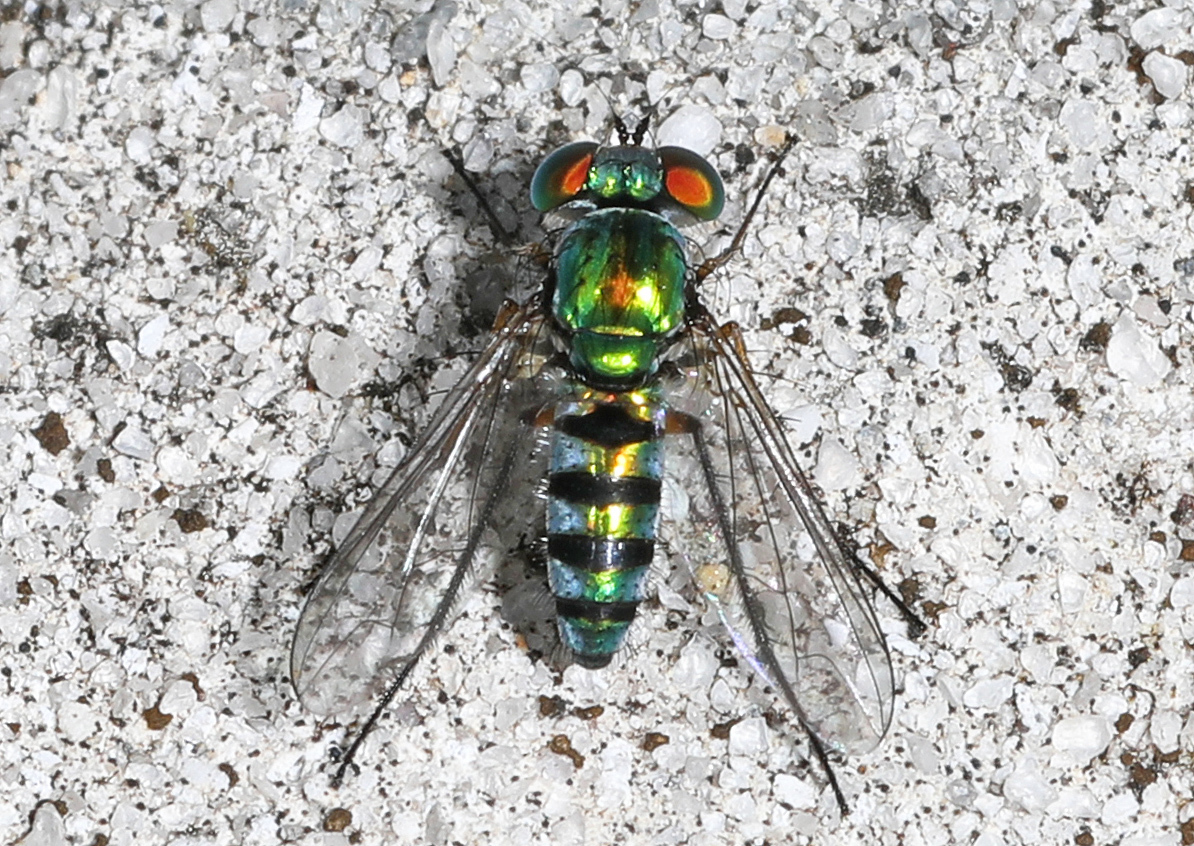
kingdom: Animalia
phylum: Arthropoda
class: Insecta
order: Diptera
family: Dolichopodidae
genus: Condylostylus
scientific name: Condylostylus pruinosus
